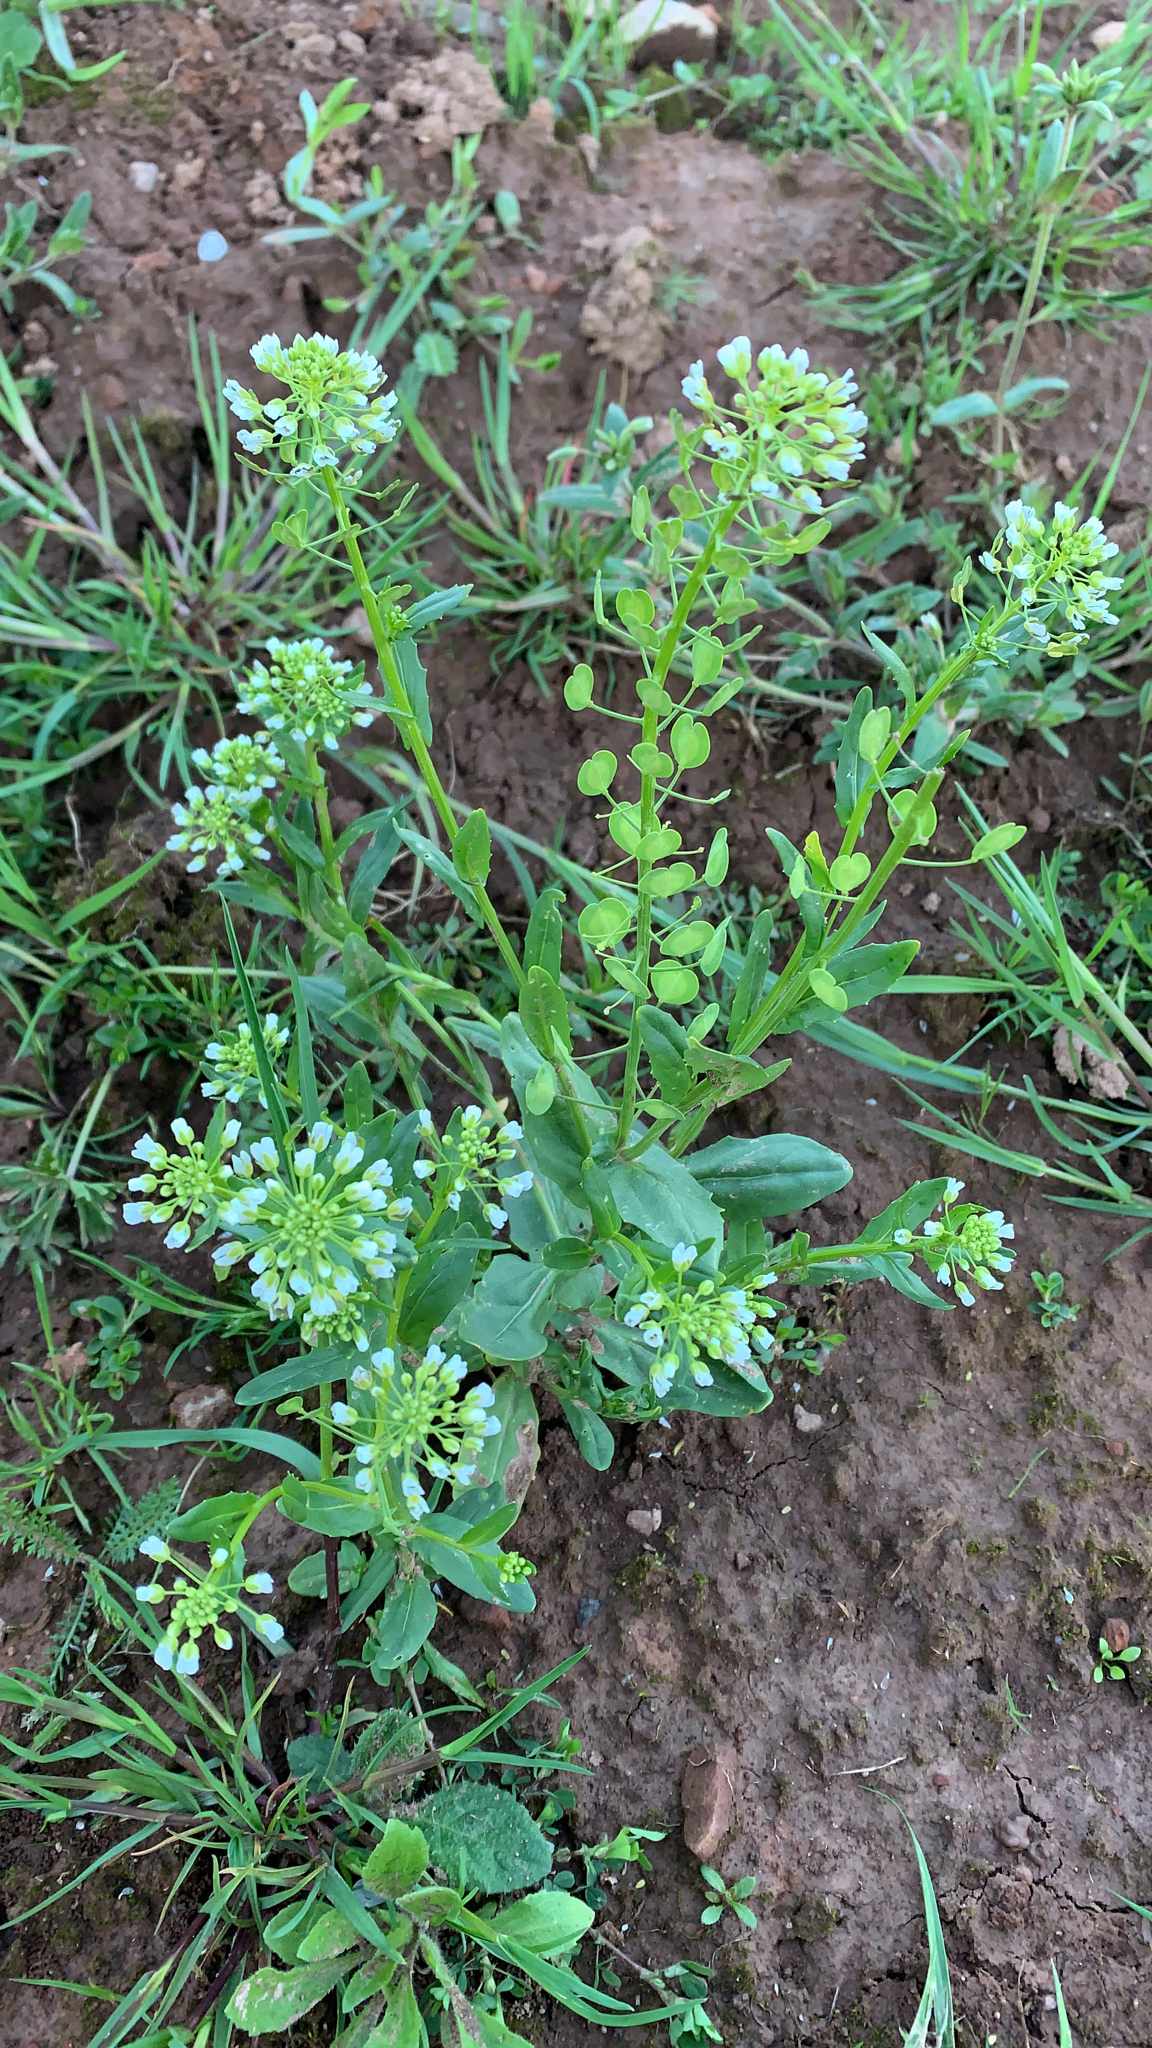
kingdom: Plantae
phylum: Tracheophyta
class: Magnoliopsida
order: Brassicales
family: Brassicaceae
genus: Thlaspi
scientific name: Thlaspi arvense
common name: Field pennycress
